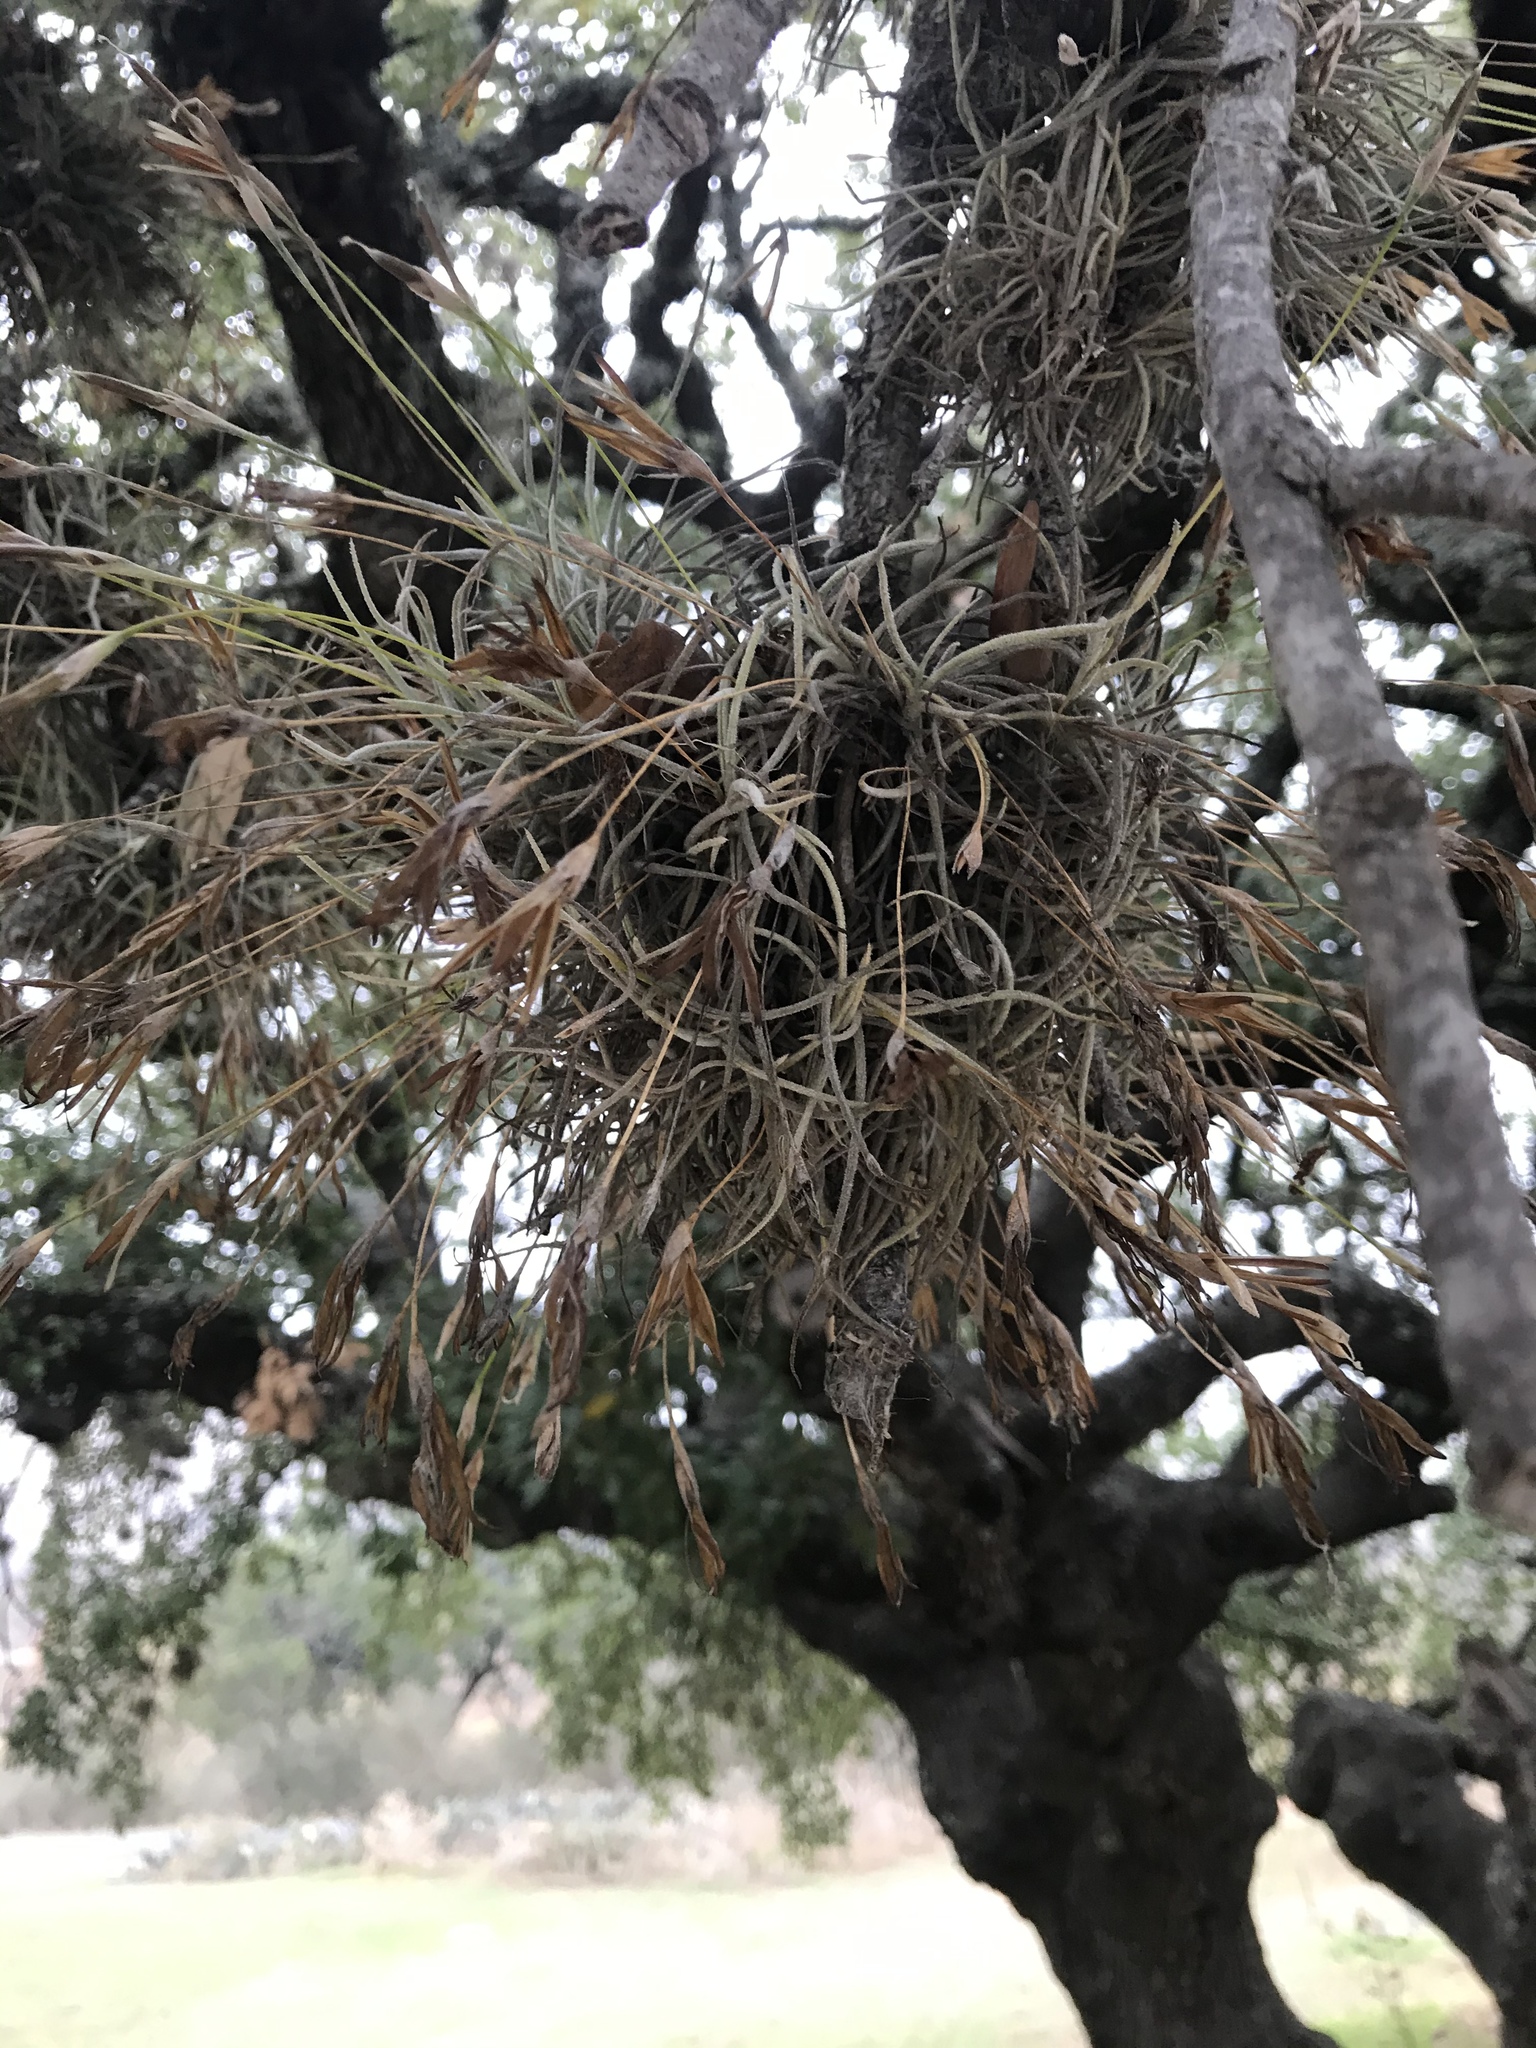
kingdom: Plantae
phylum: Tracheophyta
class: Liliopsida
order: Poales
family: Bromeliaceae
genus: Tillandsia
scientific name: Tillandsia recurvata
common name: Small ballmoss
